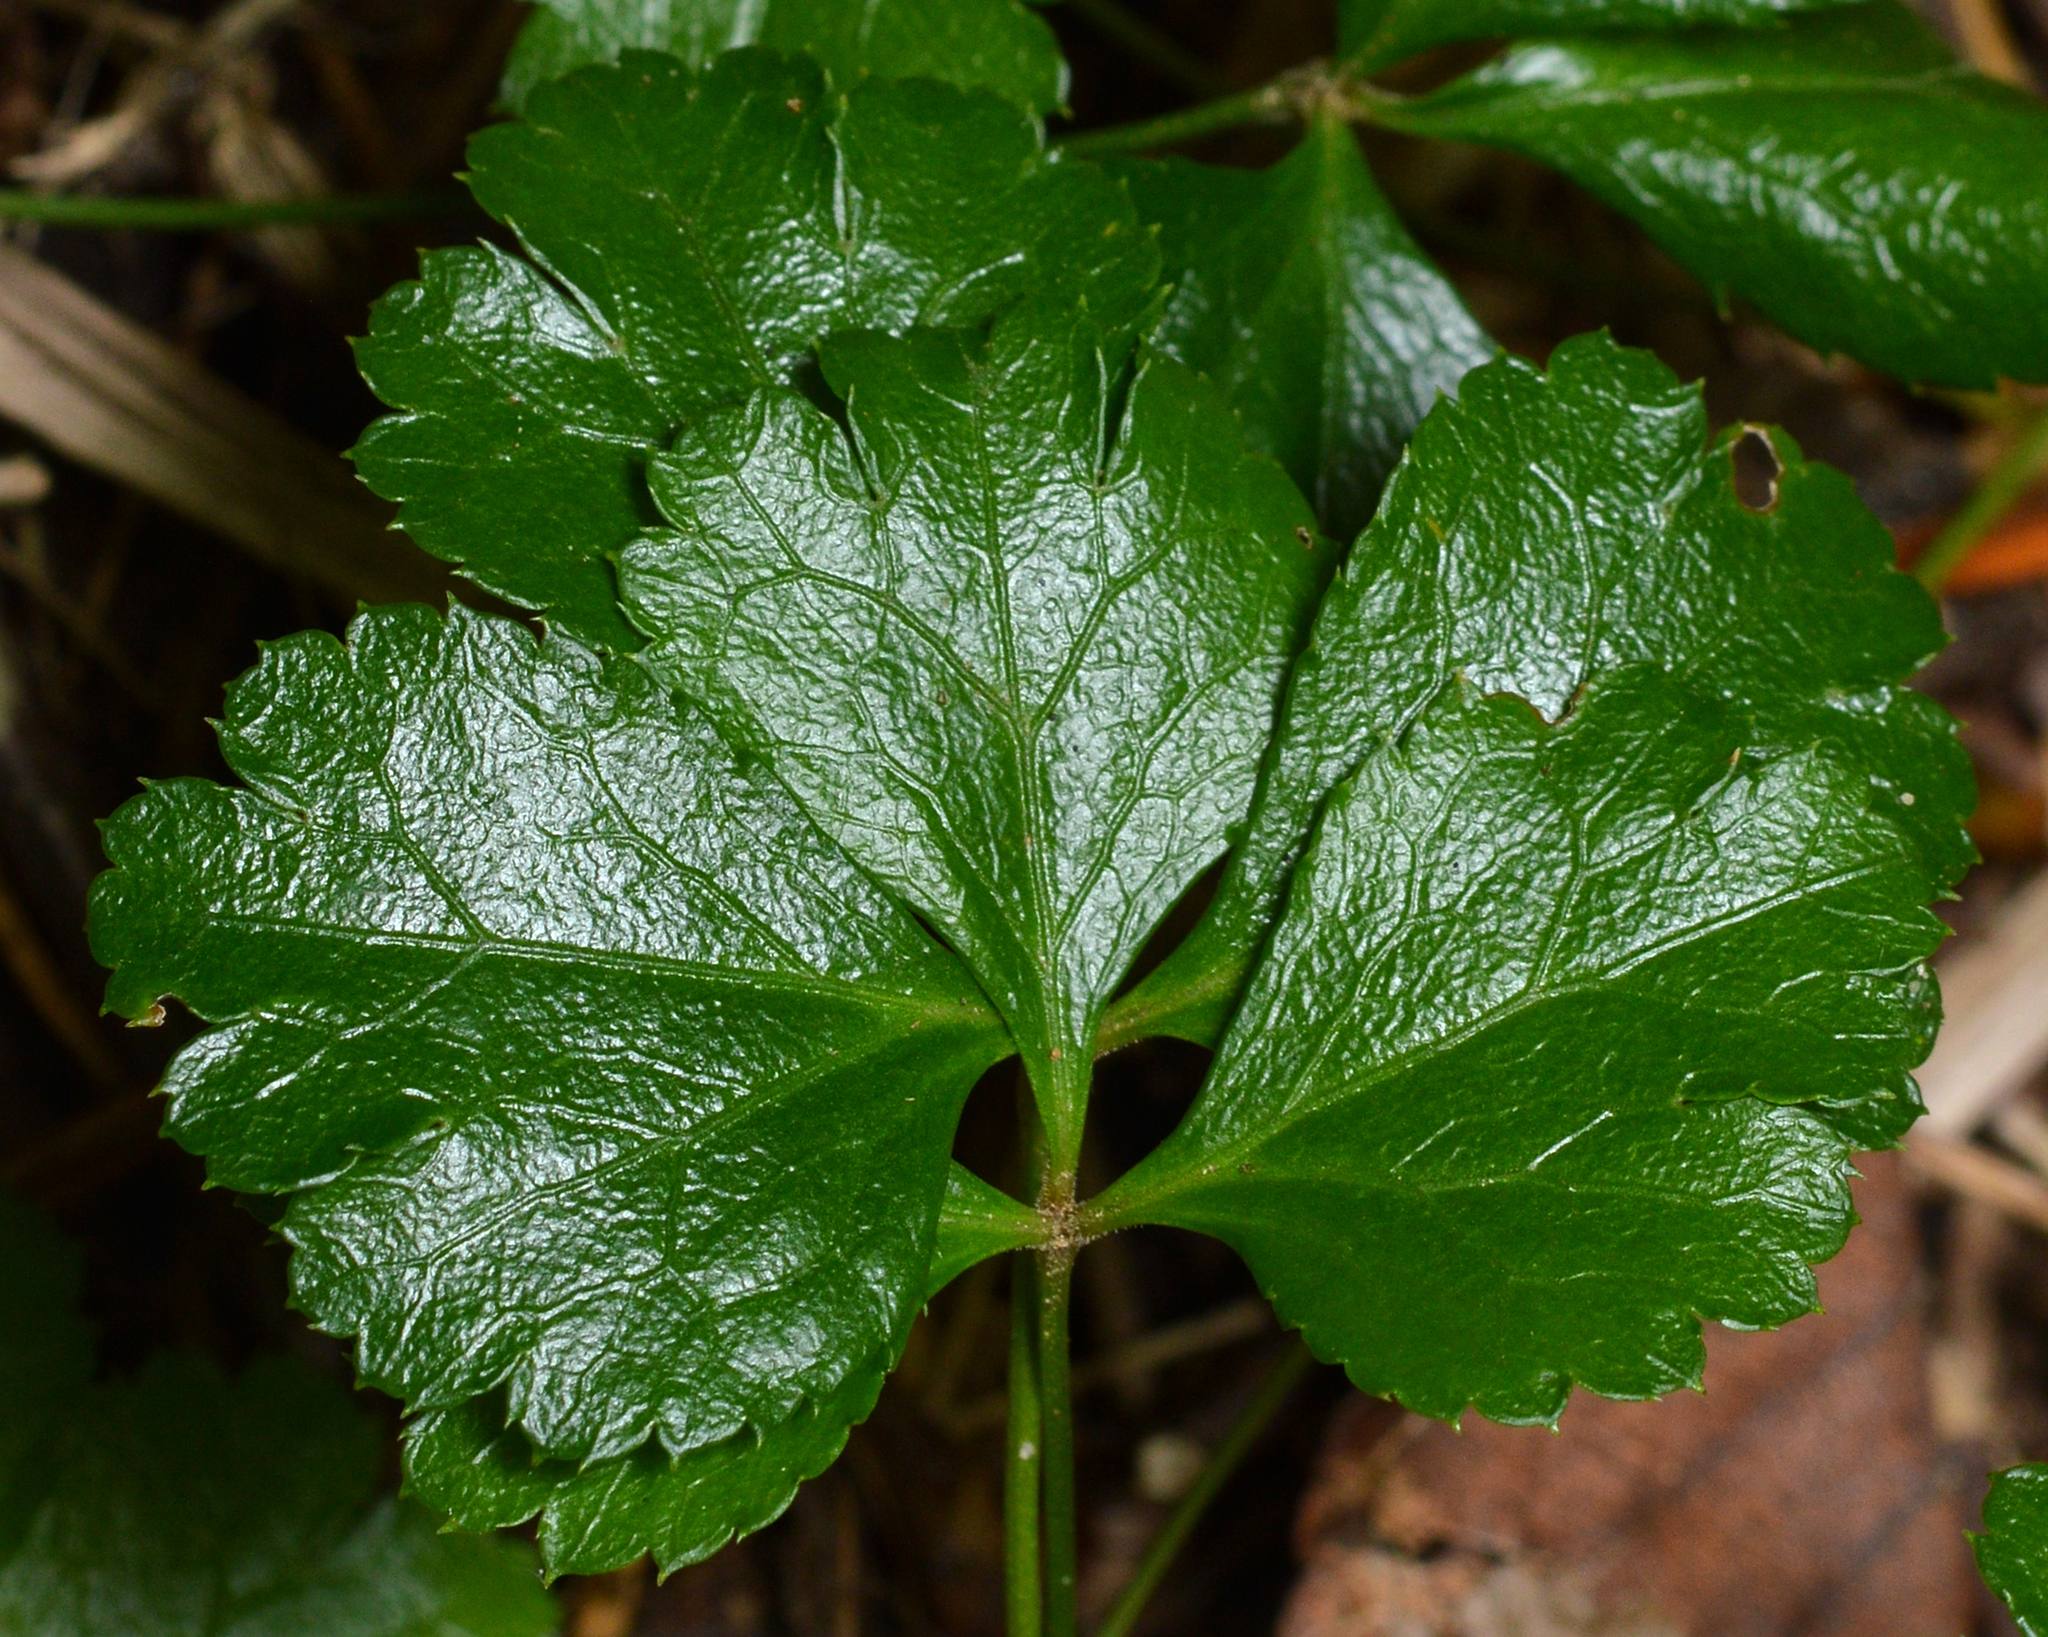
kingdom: Plantae
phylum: Tracheophyta
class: Magnoliopsida
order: Ranunculales
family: Ranunculaceae
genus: Coptis
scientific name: Coptis trifolia
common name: Canker-root
